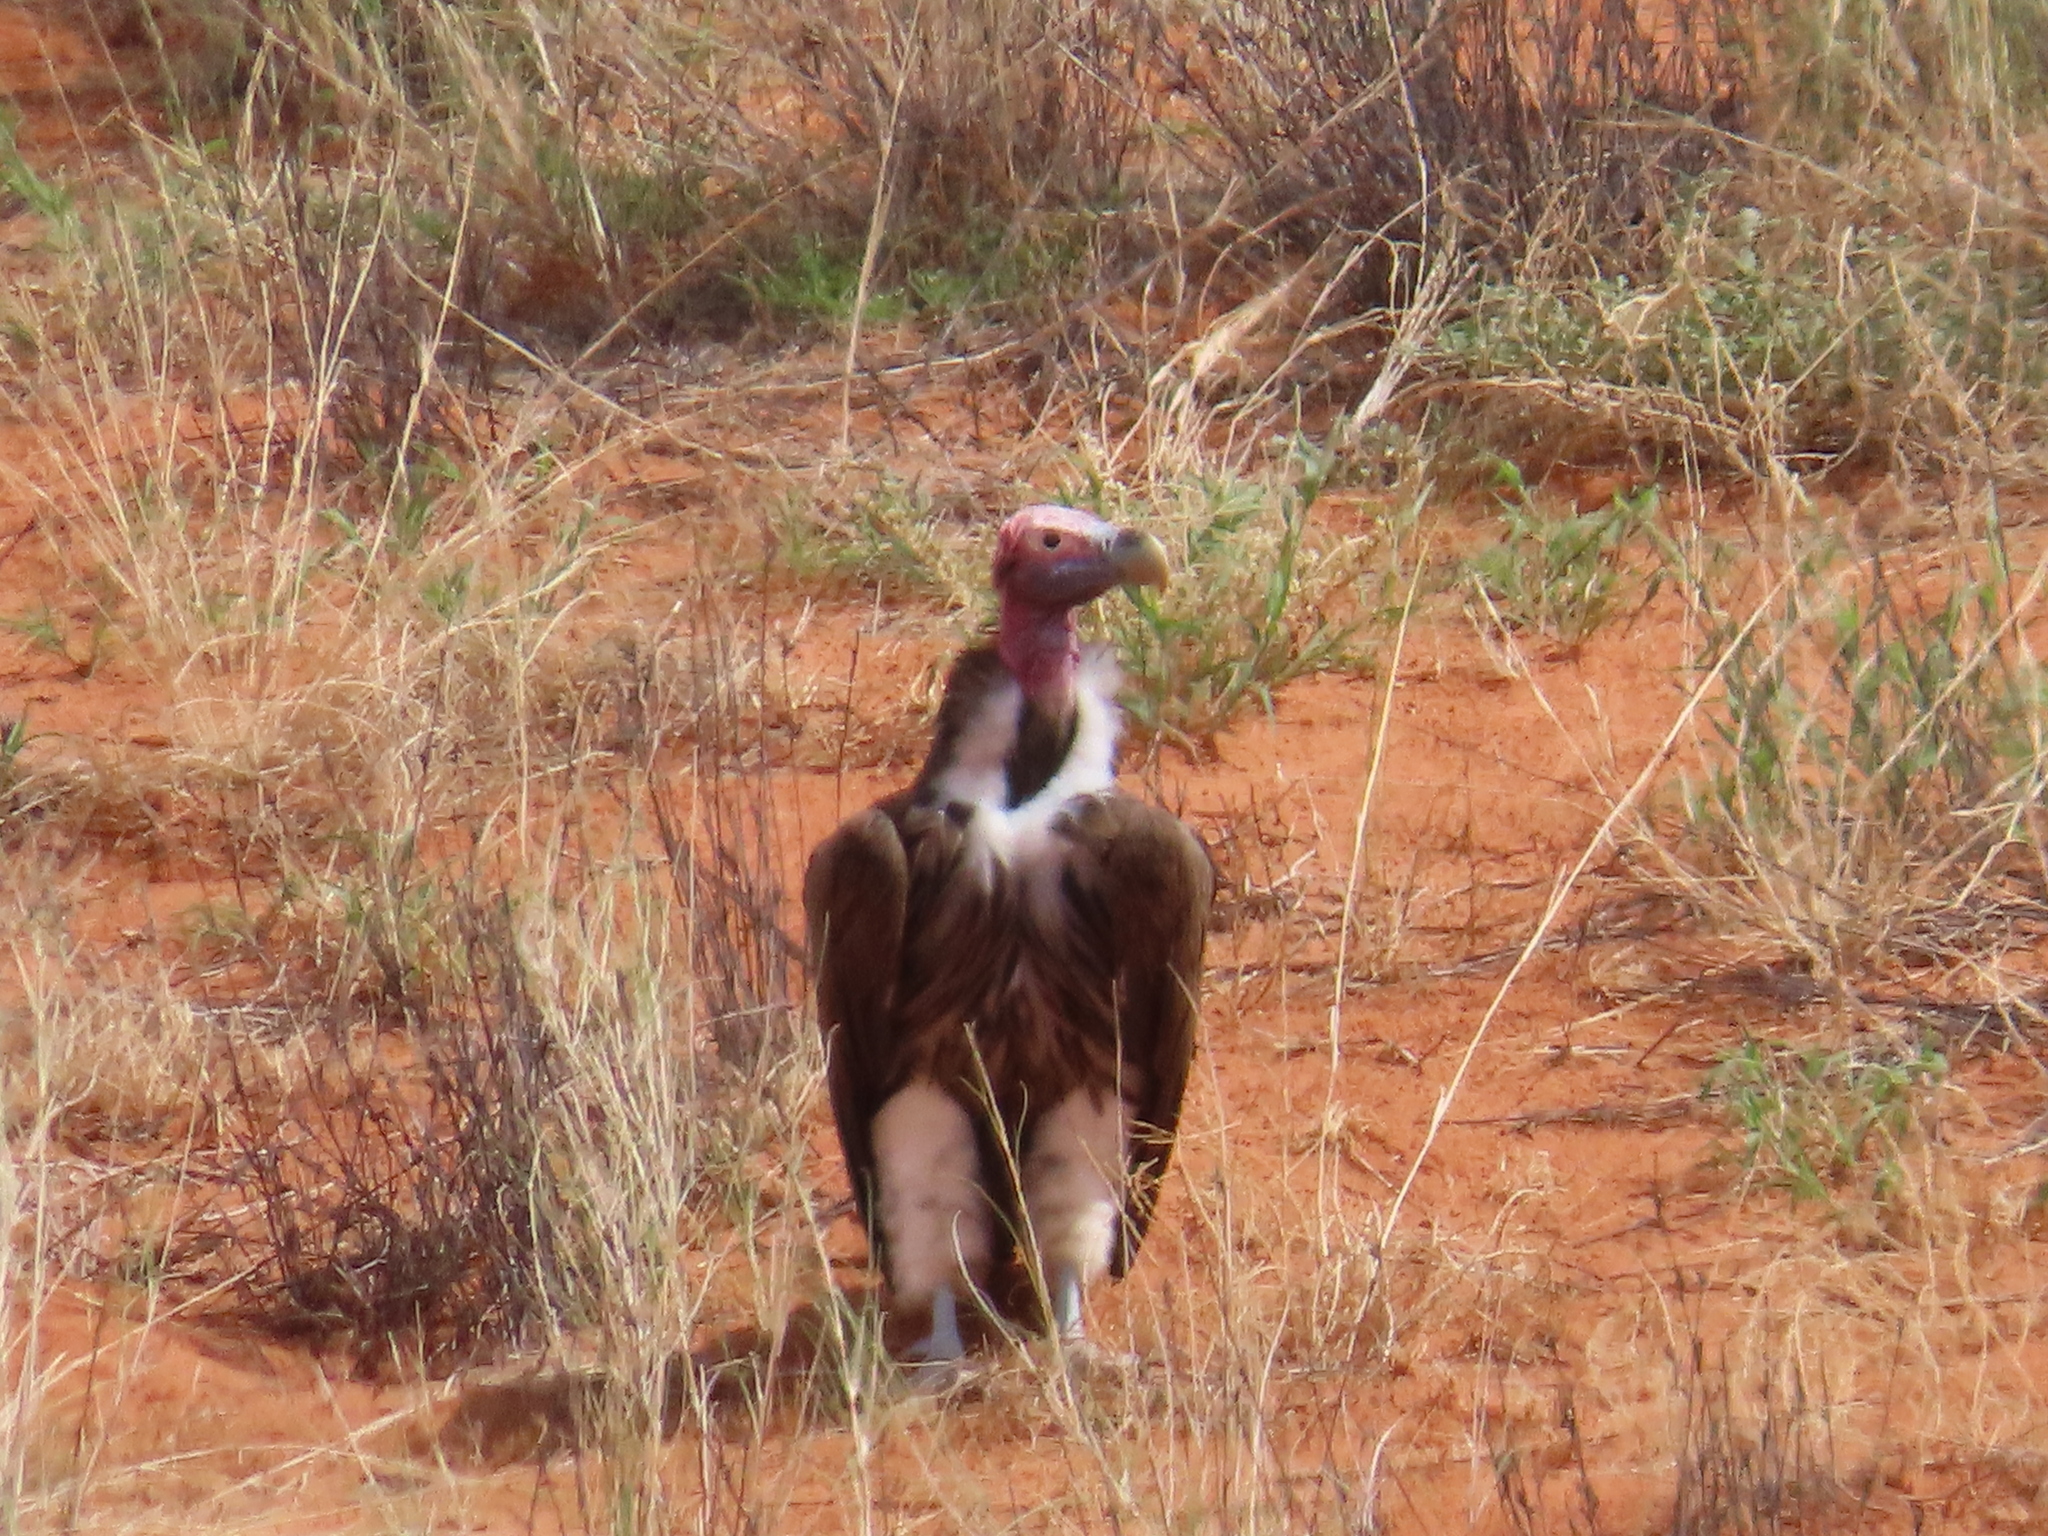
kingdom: Animalia
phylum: Chordata
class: Aves
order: Accipitriformes
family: Accipitridae
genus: Torgos
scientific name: Torgos tracheliotos
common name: Lappet-faced vulture
